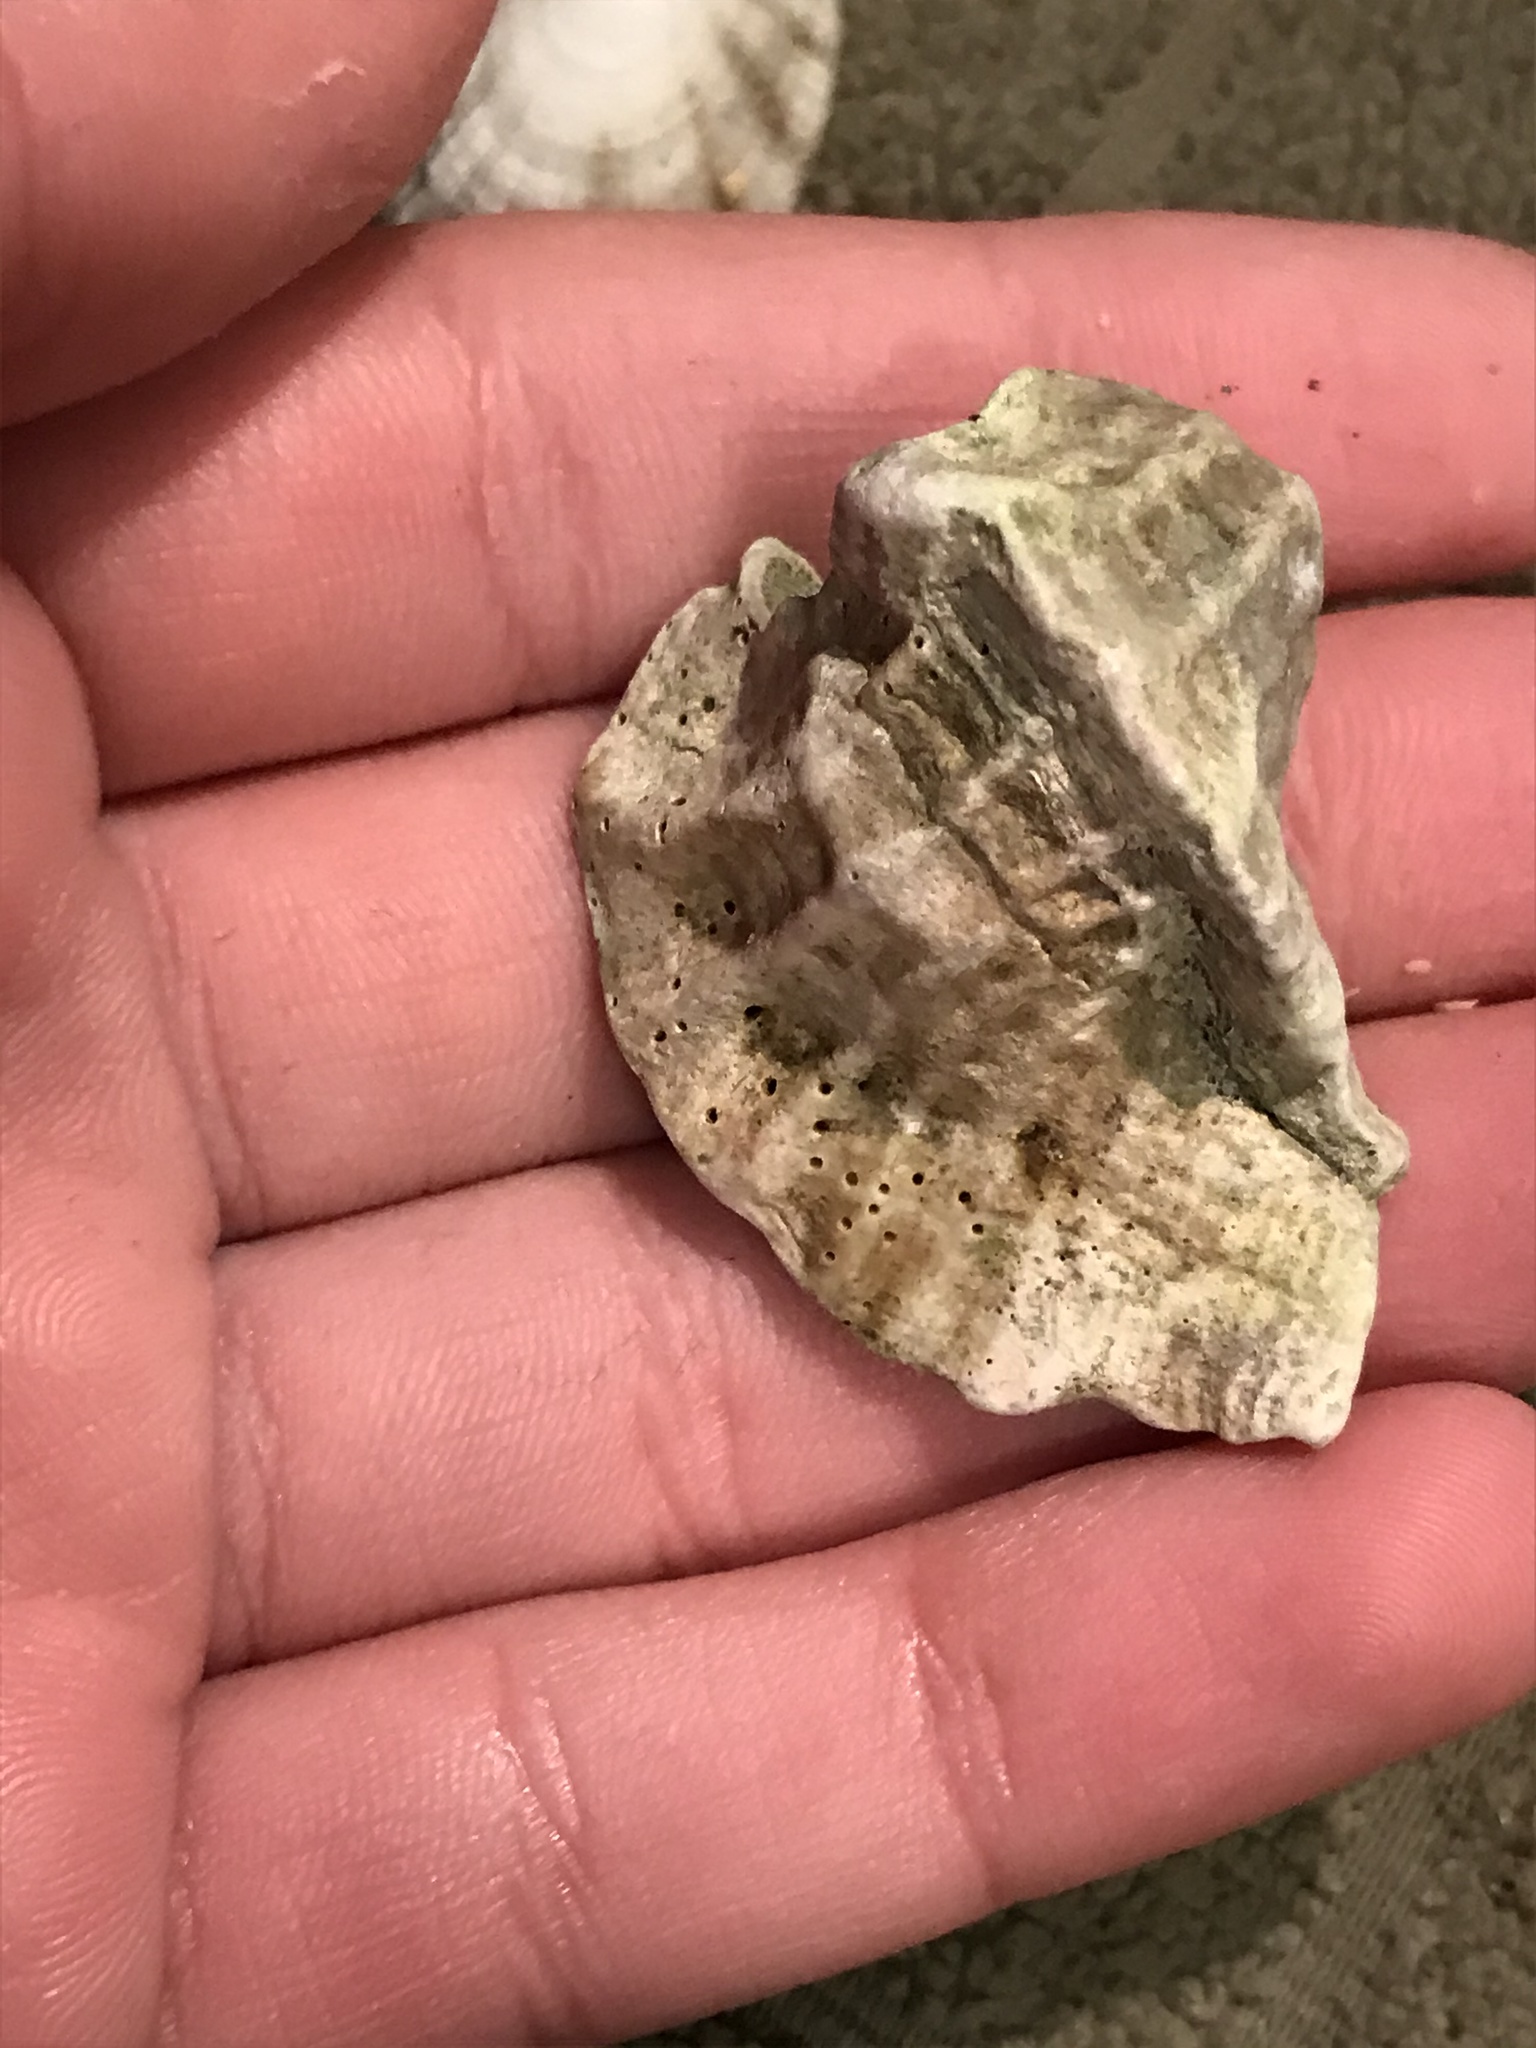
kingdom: Animalia
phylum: Mollusca
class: Gastropoda
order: Neogastropoda
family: Muricidae
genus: Ceratostoma
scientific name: Ceratostoma foliatum
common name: Foliate thorn purpura
